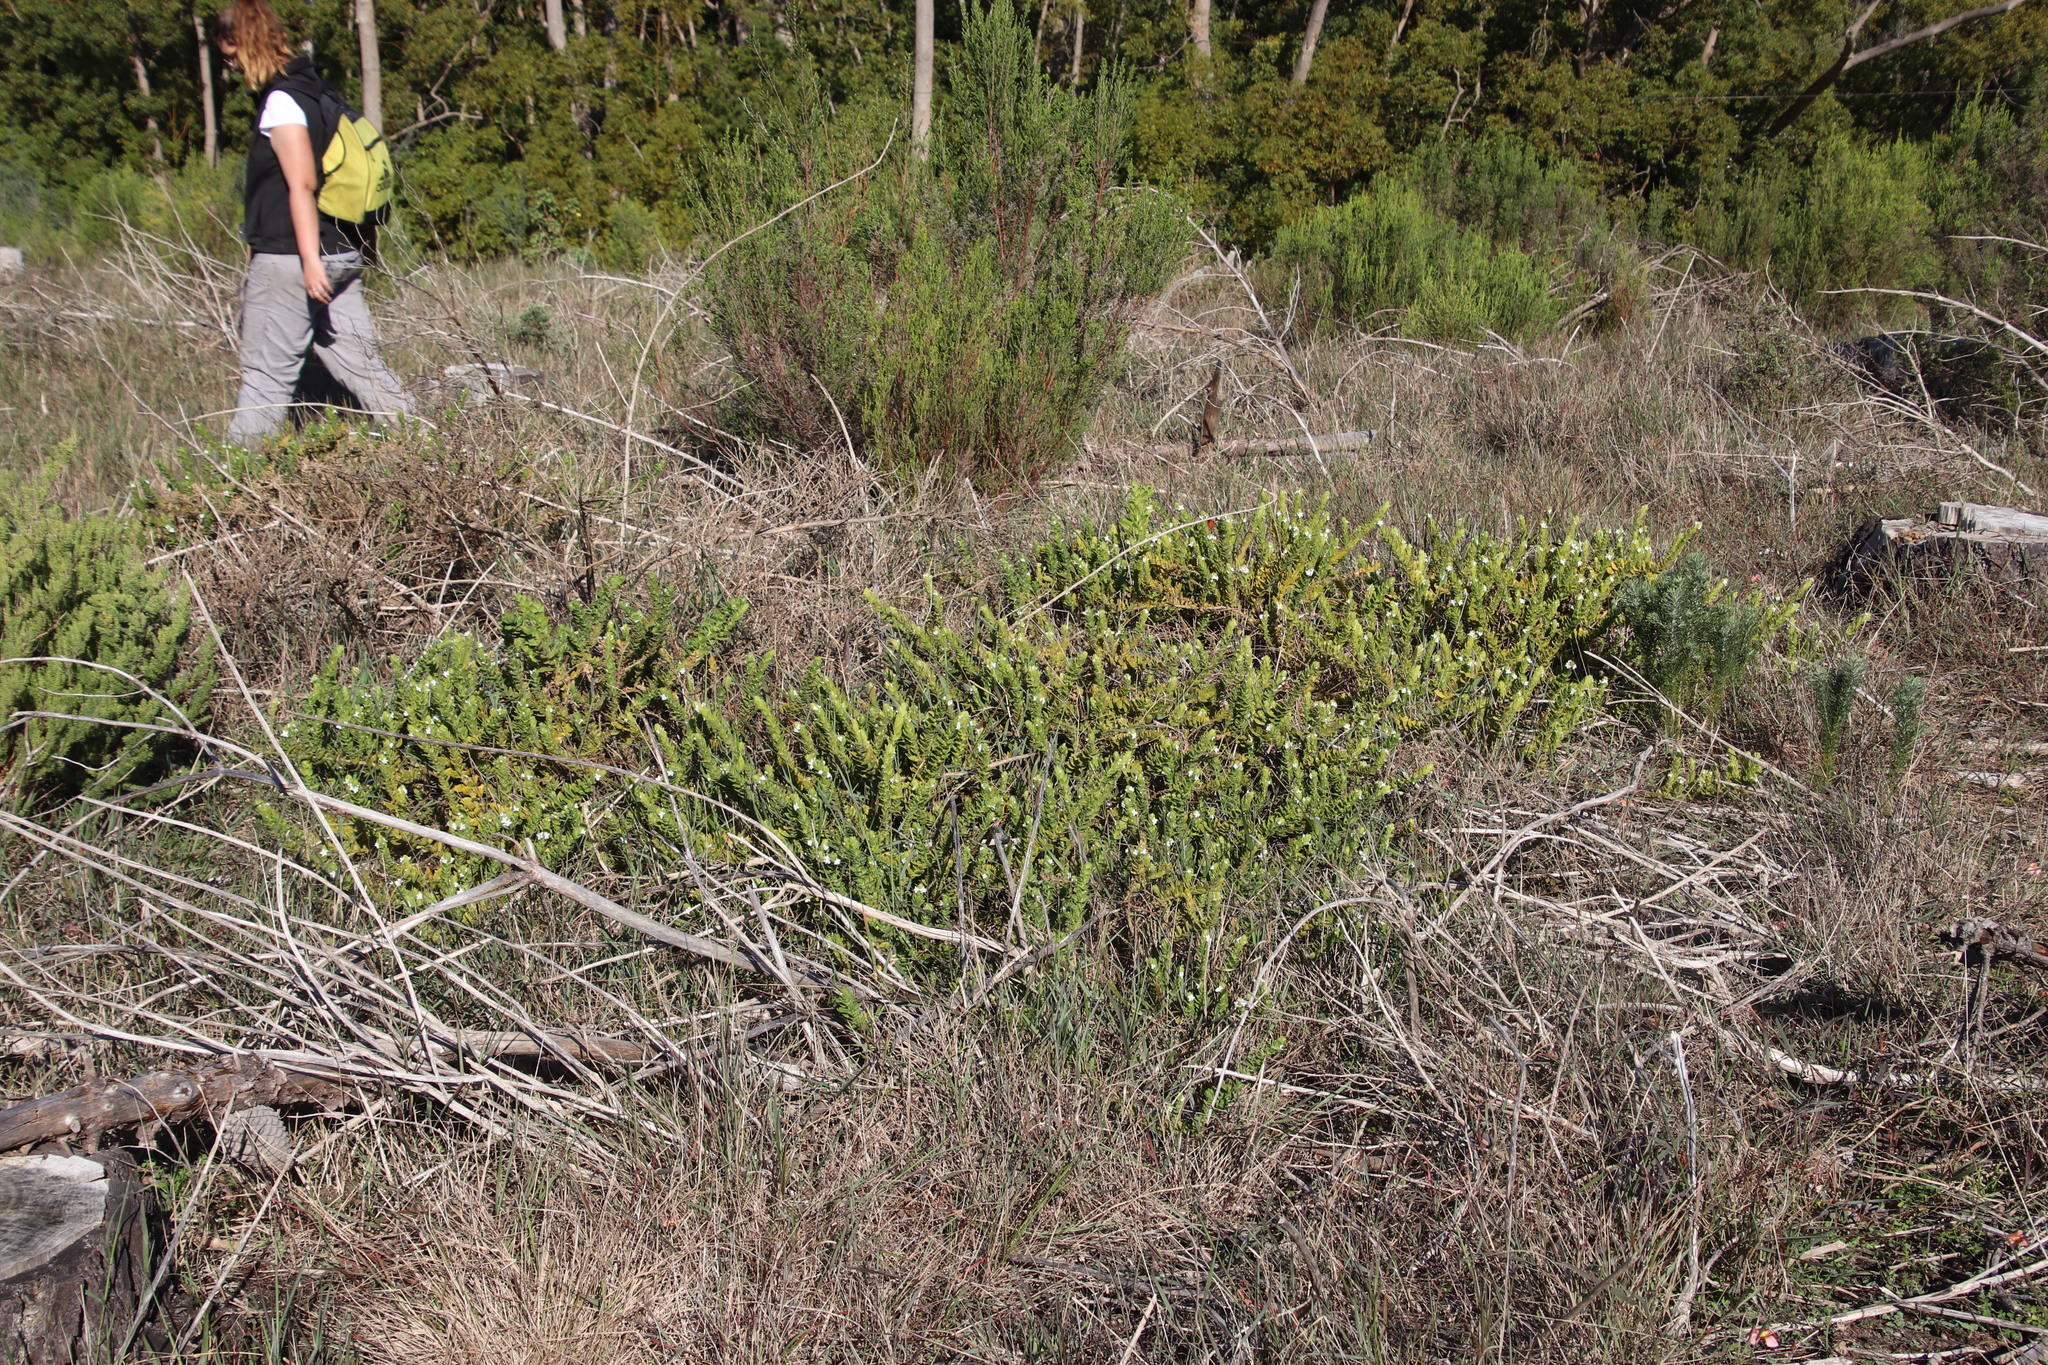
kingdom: Plantae
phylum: Tracheophyta
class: Magnoliopsida
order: Lamiales
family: Scrophulariaceae
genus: Oftia
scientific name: Oftia africana
